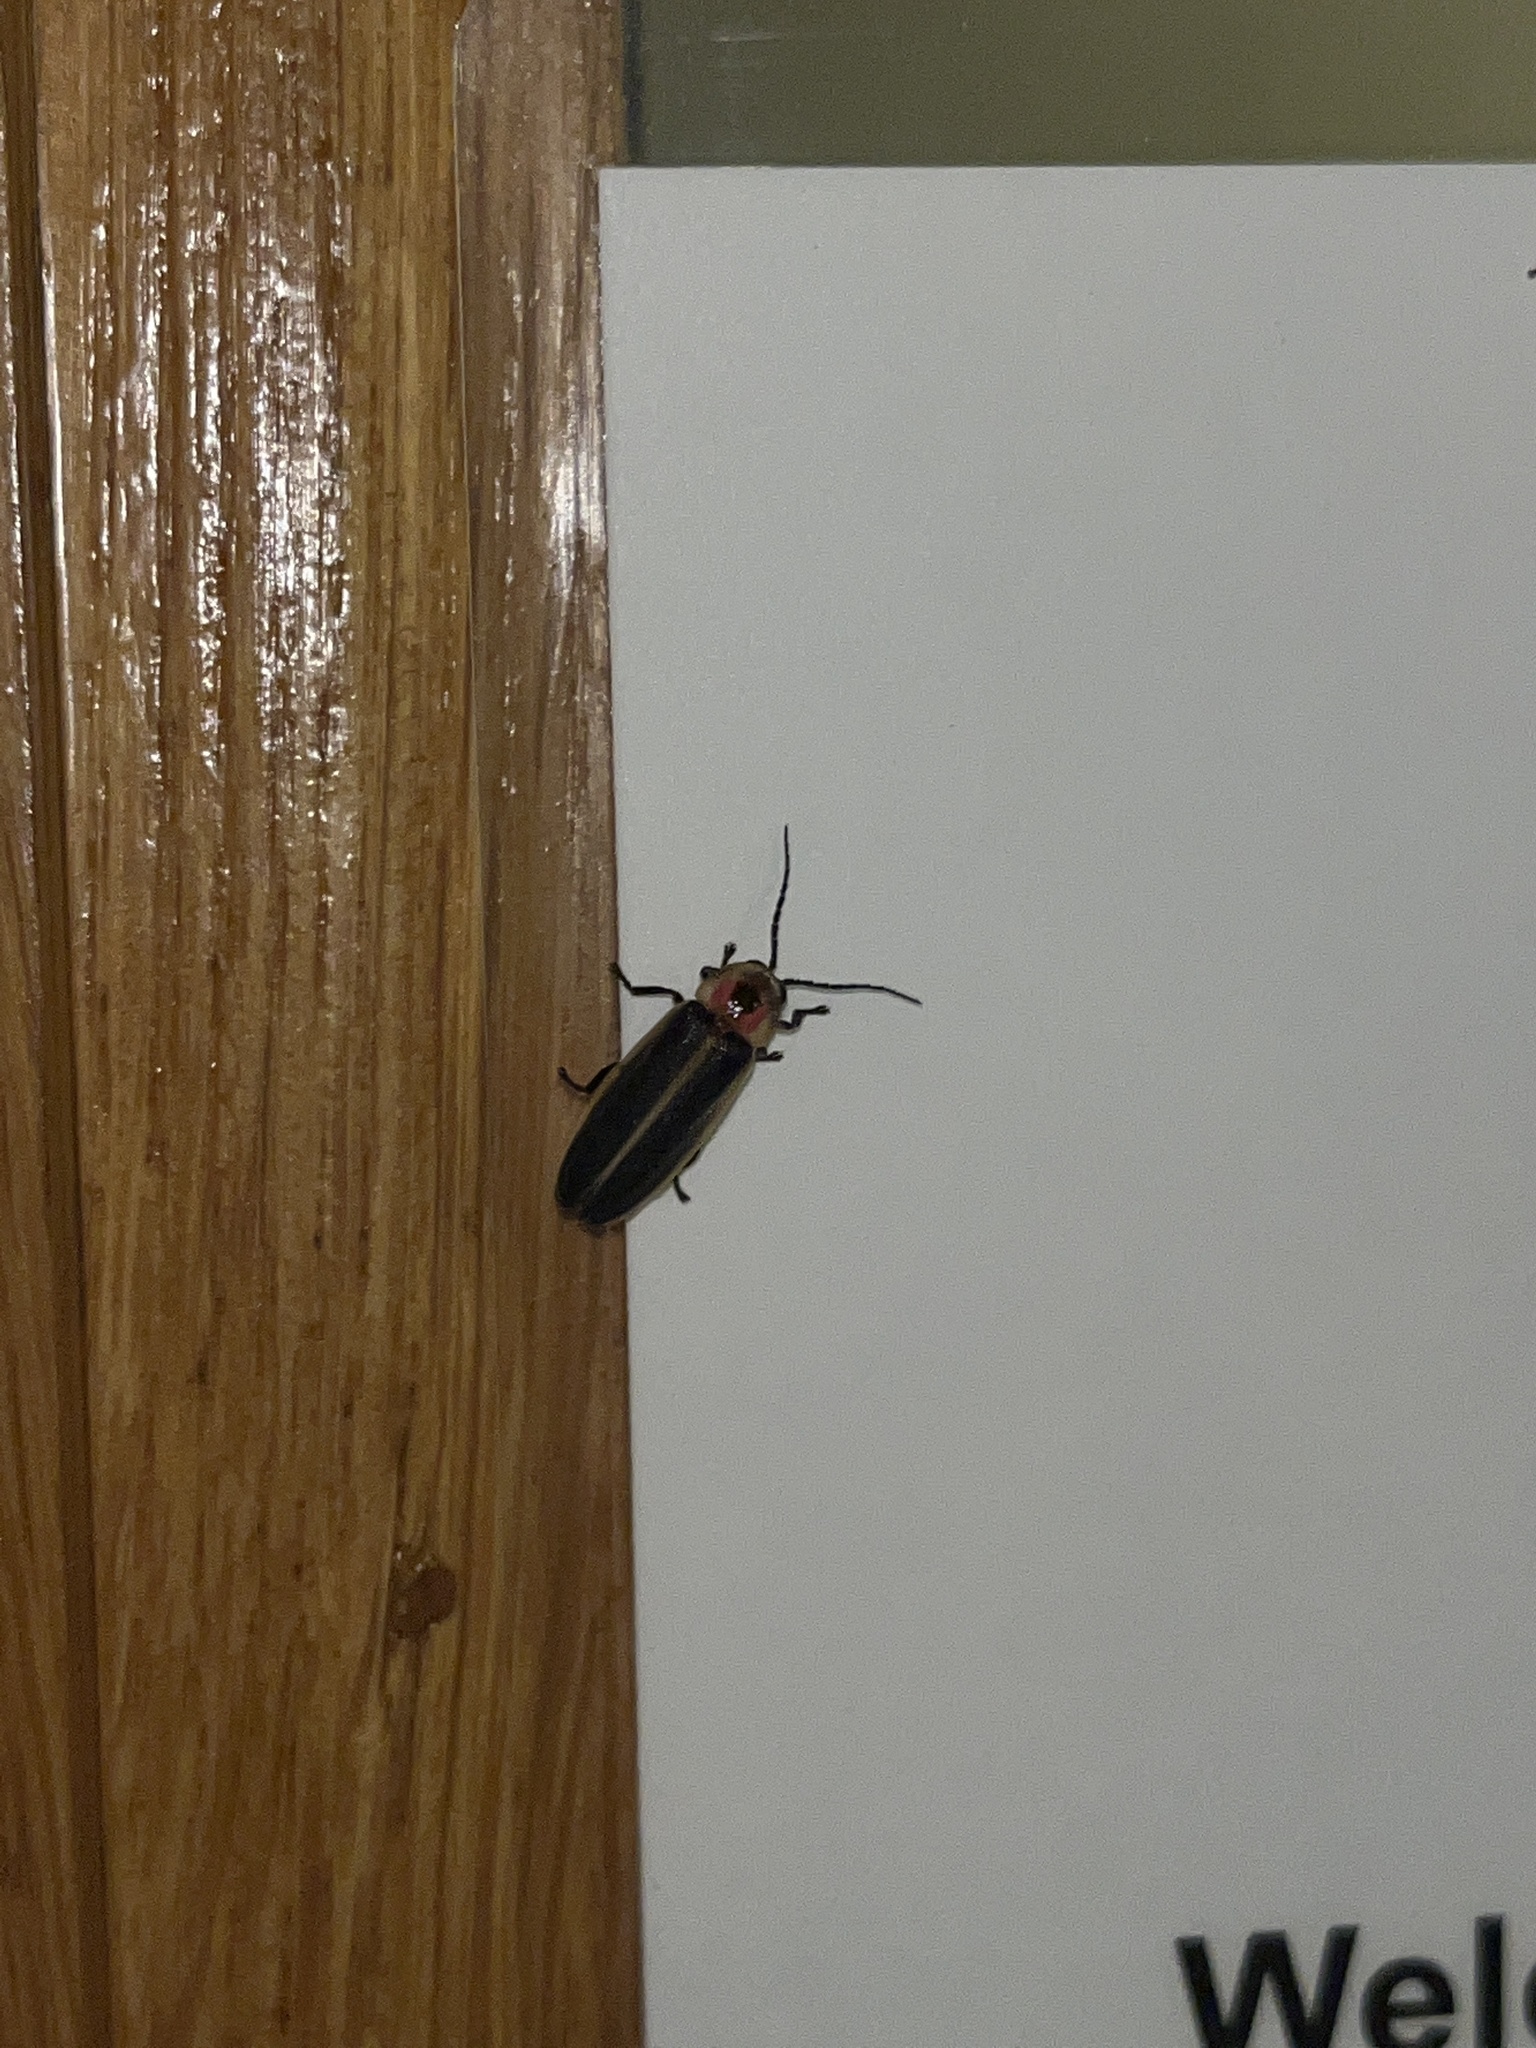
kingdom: Animalia
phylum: Arthropoda
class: Insecta
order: Coleoptera
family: Lampyridae
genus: Photinus
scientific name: Photinus pyralis
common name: Big dipper firefly
